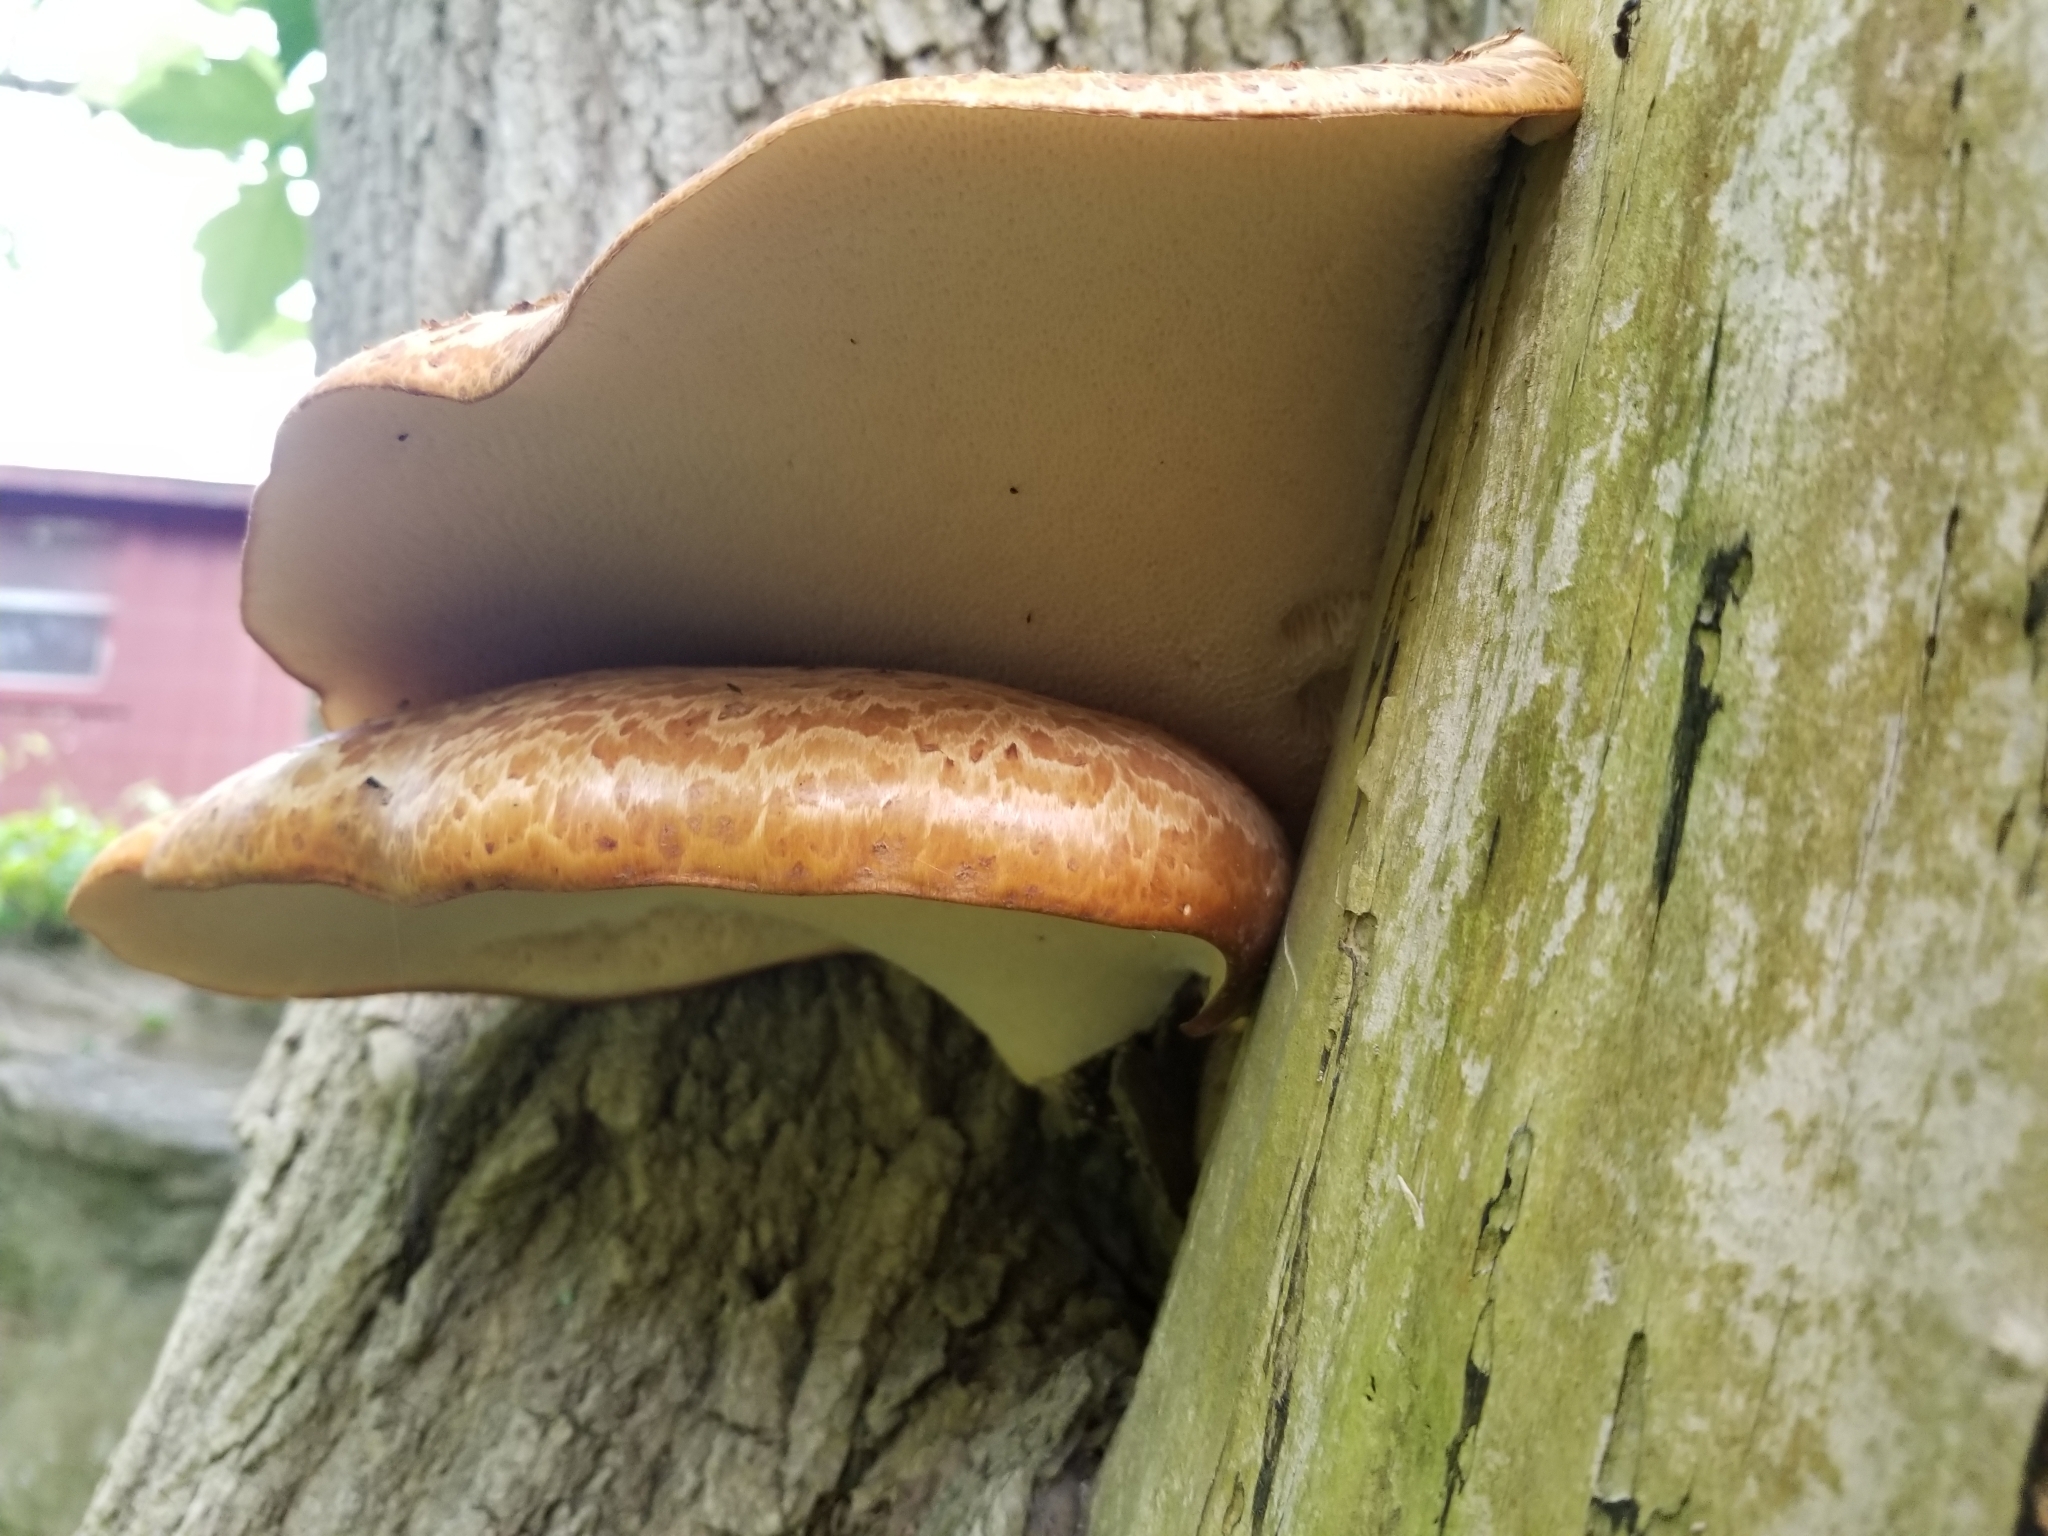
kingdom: Fungi
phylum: Basidiomycota
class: Agaricomycetes
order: Polyporales
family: Polyporaceae
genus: Cerioporus
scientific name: Cerioporus squamosus
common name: Dryad's saddle
